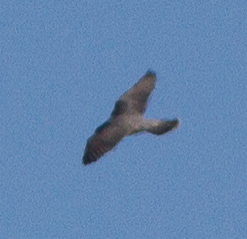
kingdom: Animalia
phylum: Chordata
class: Aves
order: Falconiformes
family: Falconidae
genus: Falco
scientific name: Falco peregrinus
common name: Peregrine falcon
